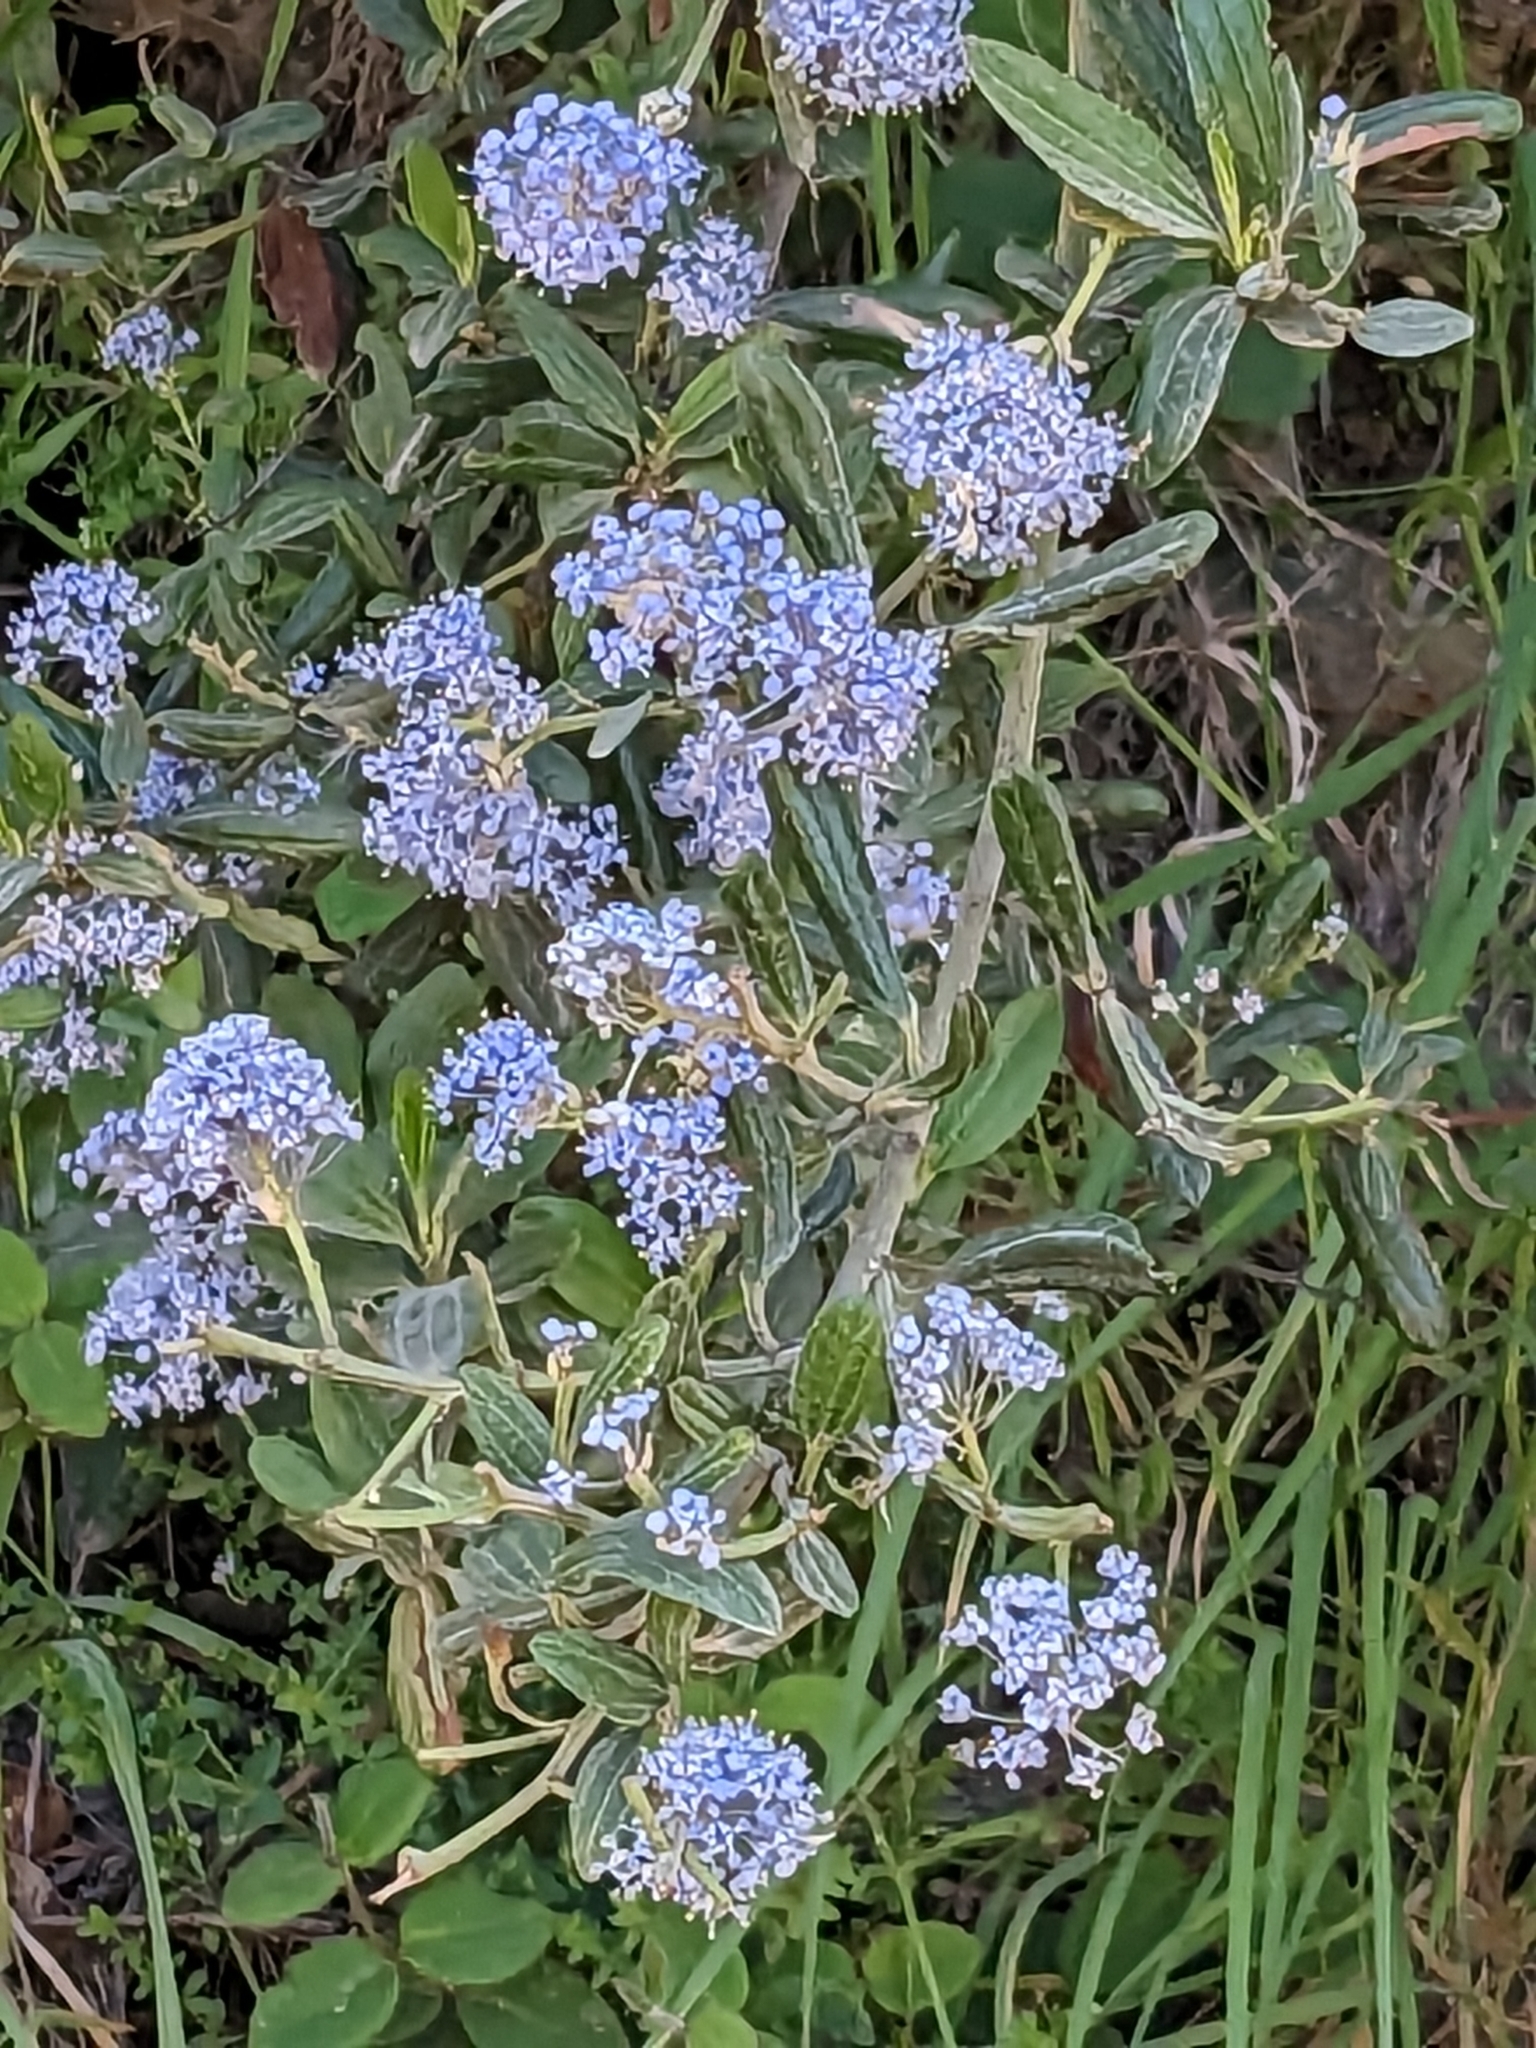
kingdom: Plantae
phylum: Tracheophyta
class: Magnoliopsida
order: Rosales
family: Rhamnaceae
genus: Ceanothus
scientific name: Ceanothus thyrsiflorus
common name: California-lilac
